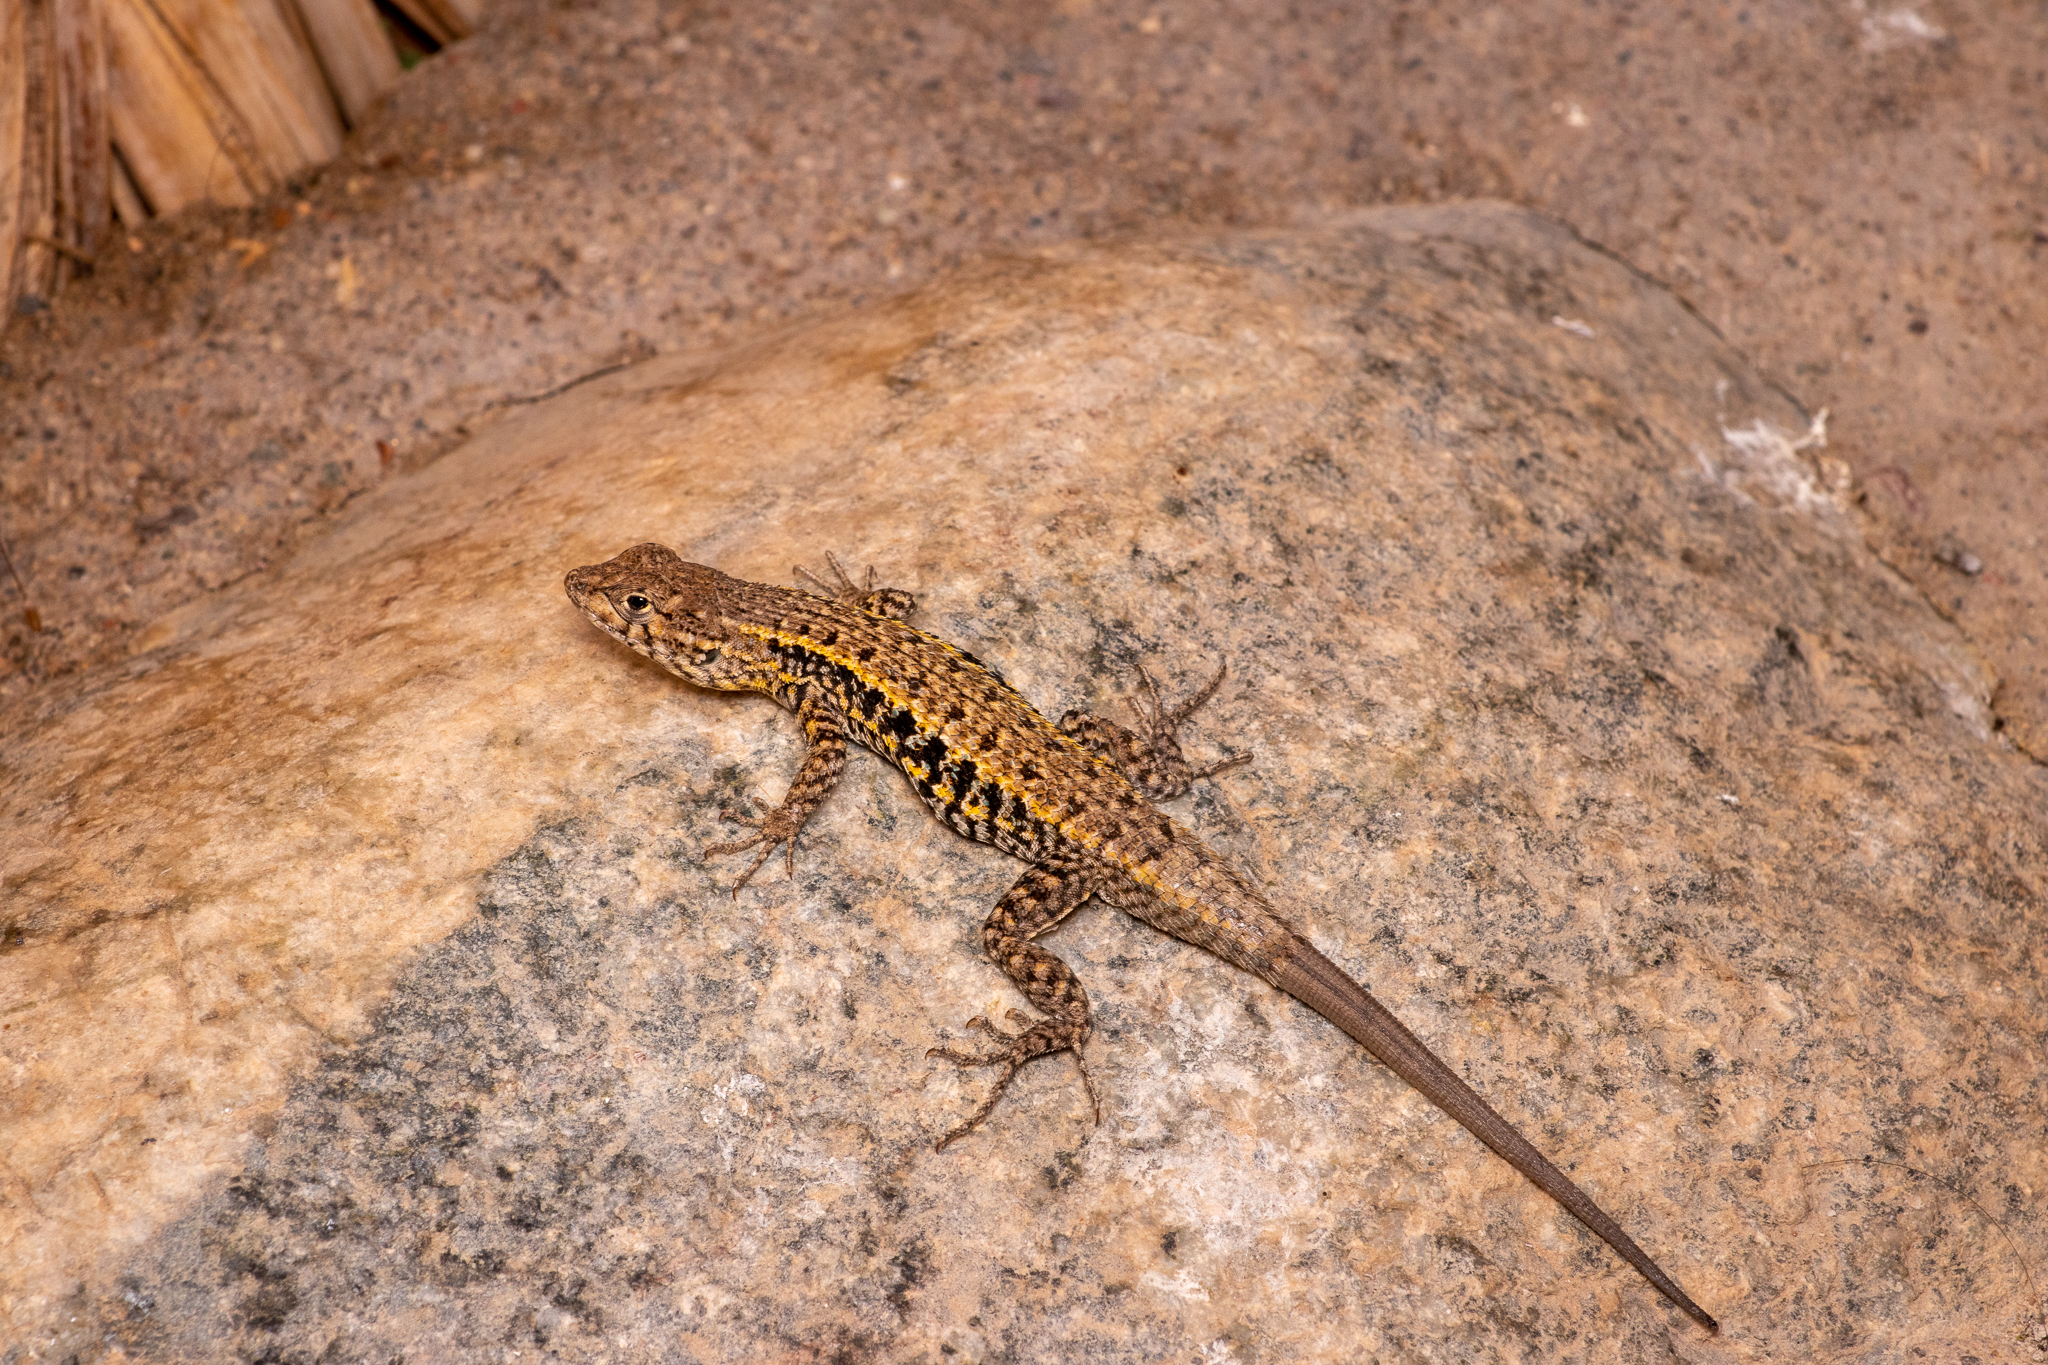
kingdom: Animalia
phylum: Chordata
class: Squamata
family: Liolaemidae
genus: Liolaemus
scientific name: Liolaemus platei
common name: Braided tree iguana
